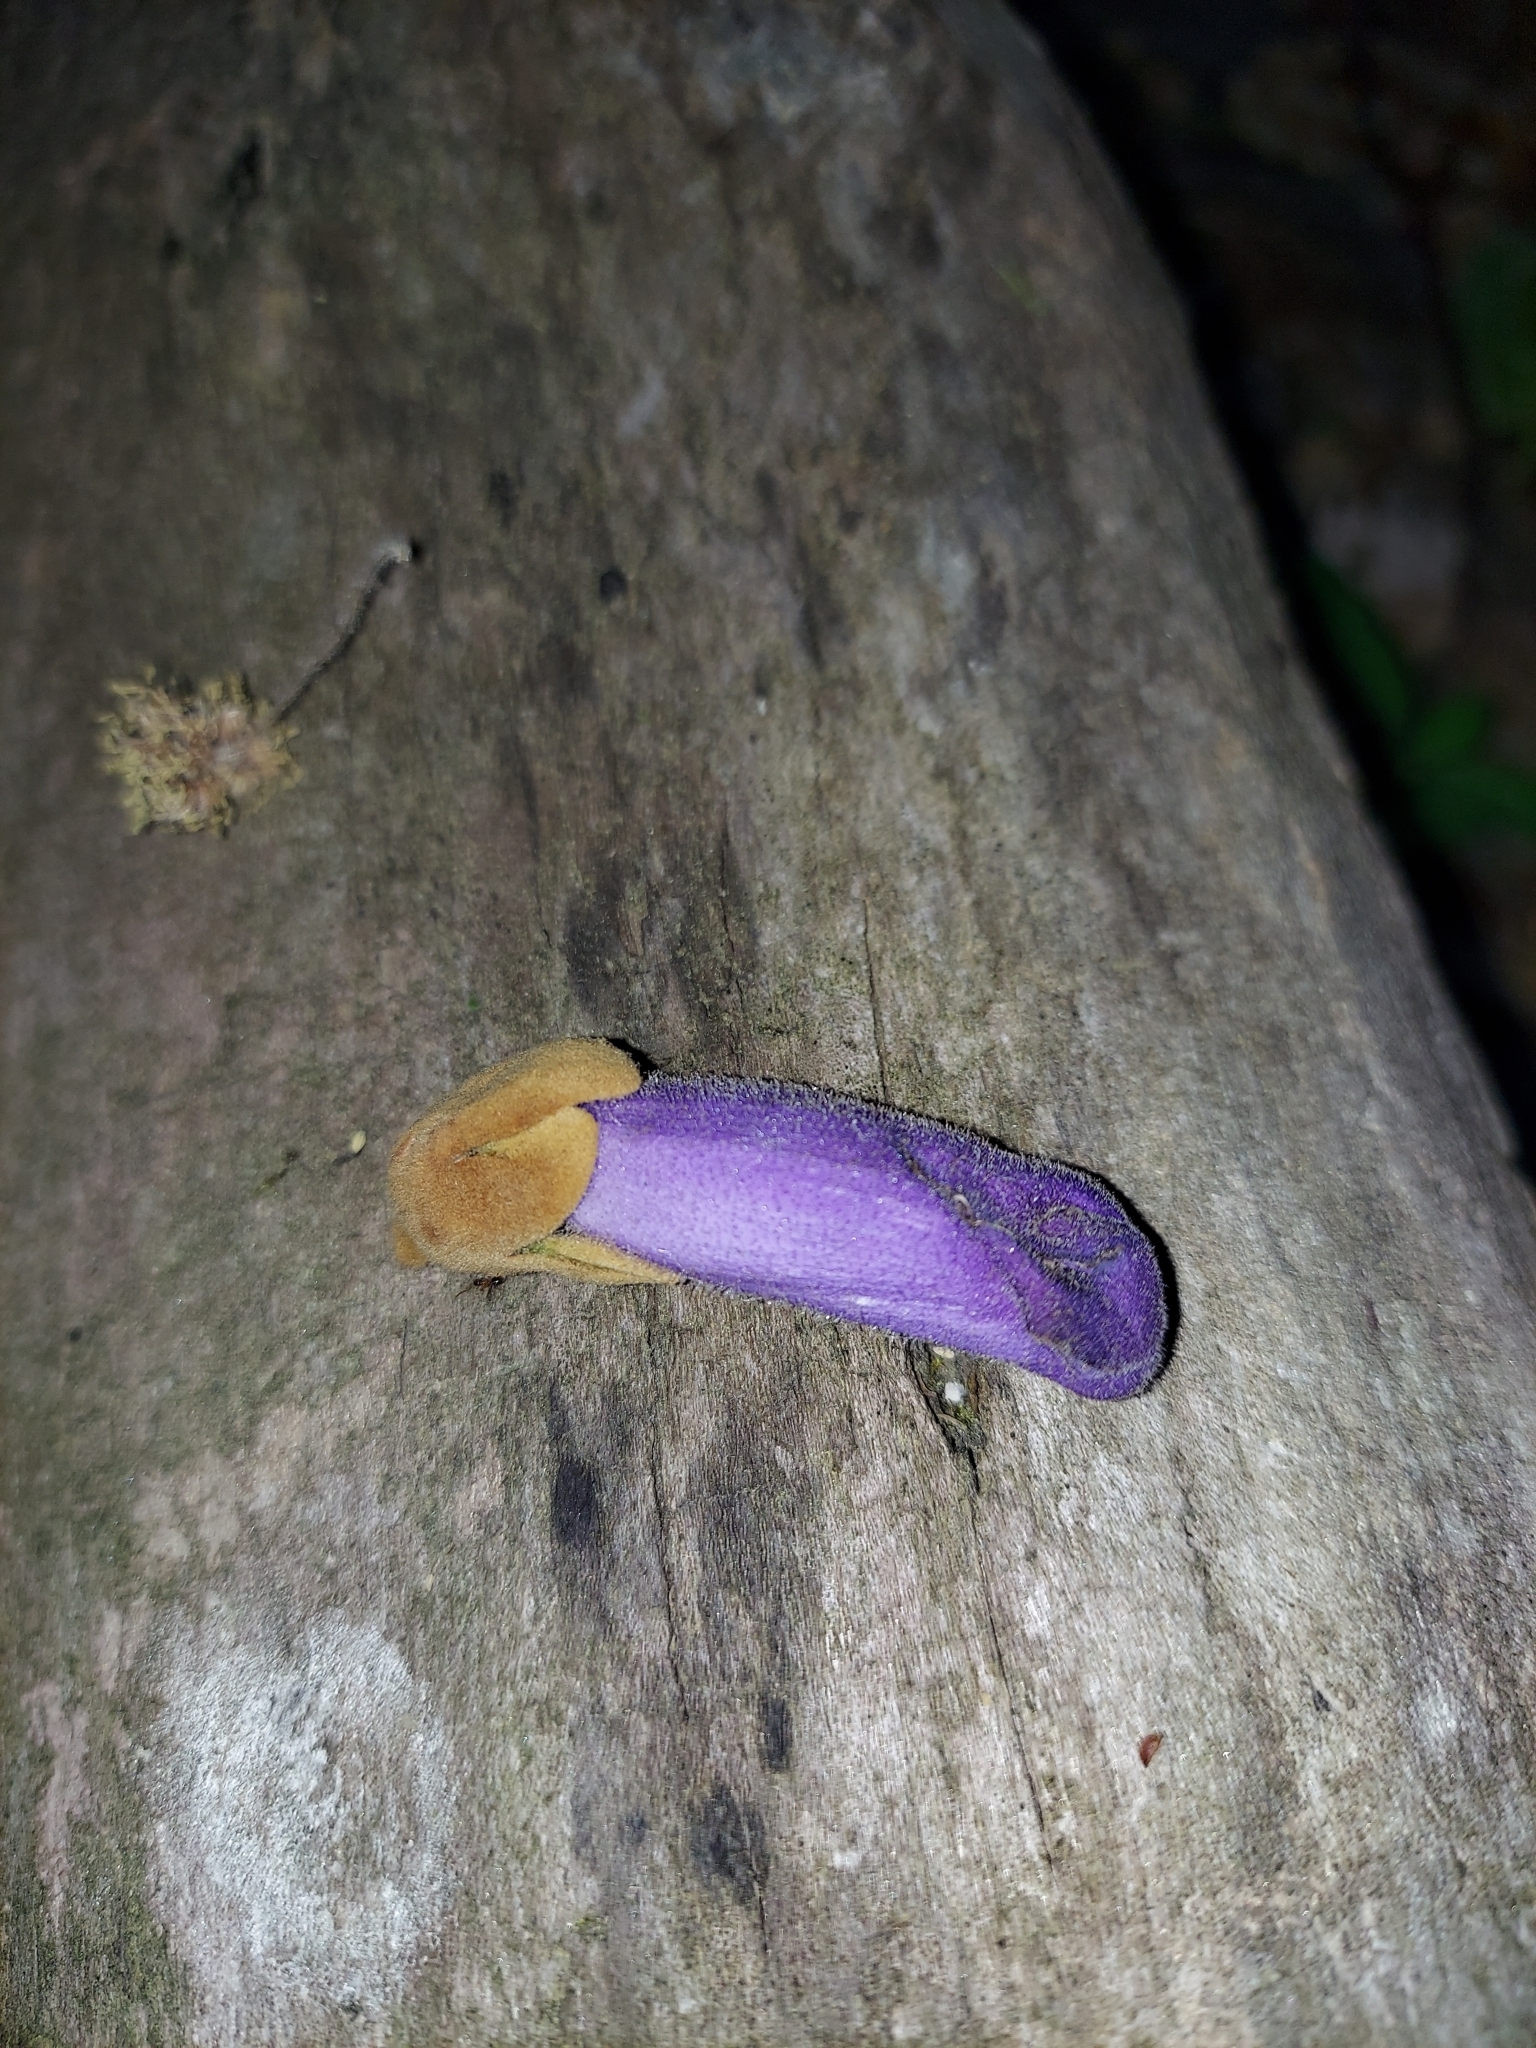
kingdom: Plantae
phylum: Tracheophyta
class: Magnoliopsida
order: Lamiales
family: Paulowniaceae
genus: Paulownia
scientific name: Paulownia tomentosa
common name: Foxglove-tree
